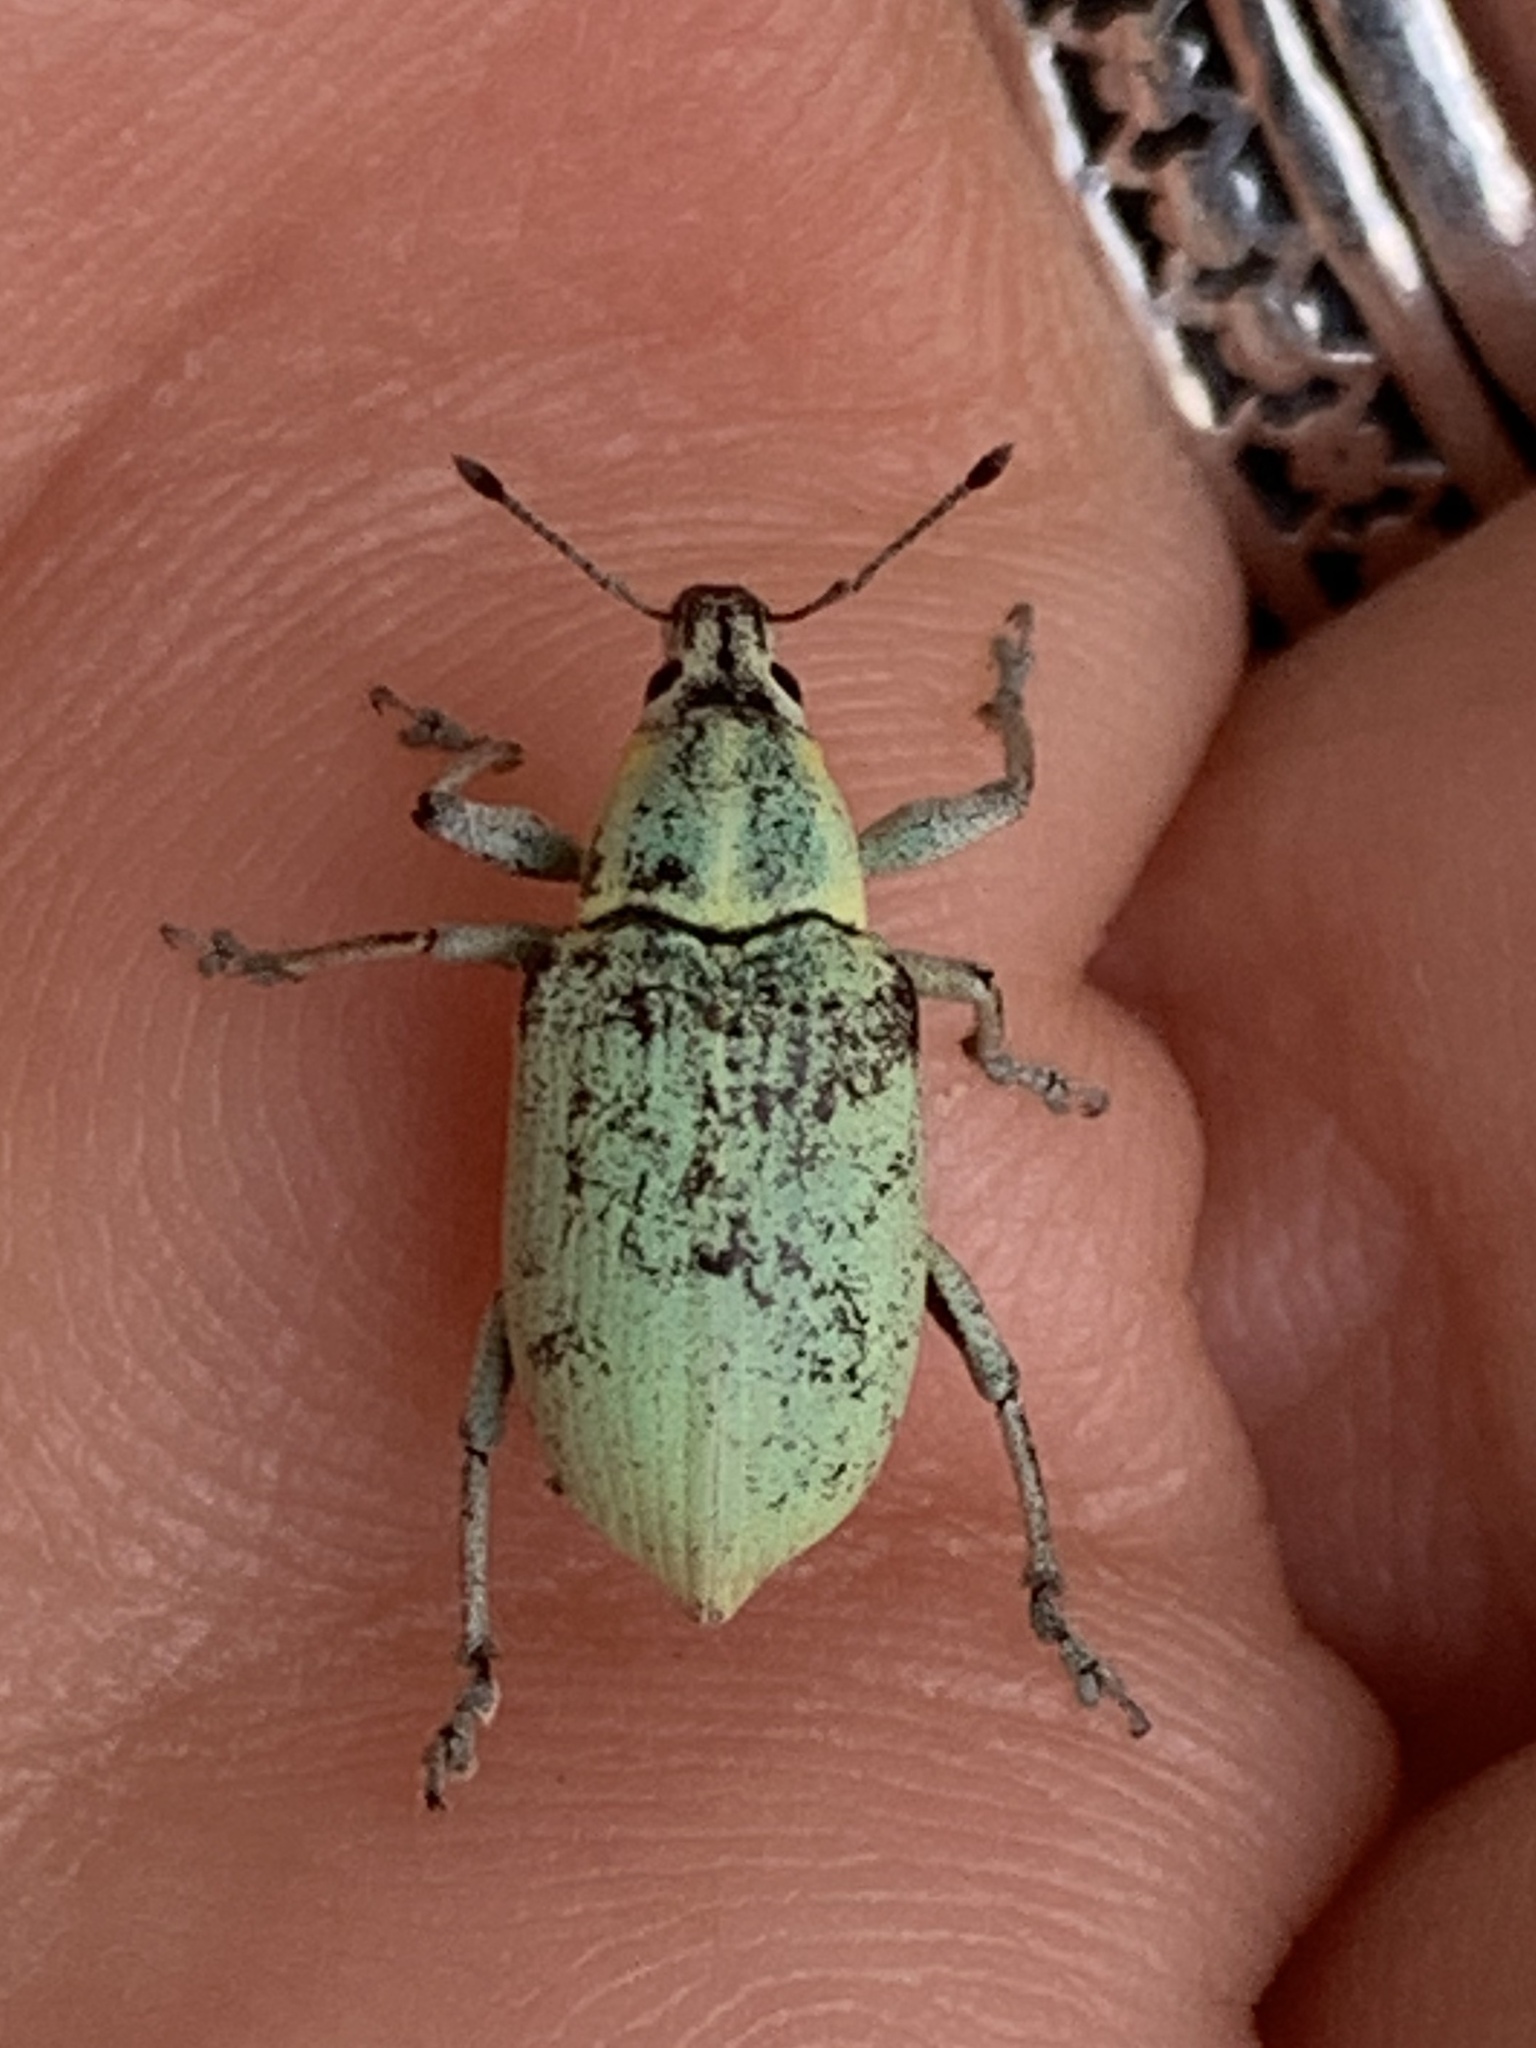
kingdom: Animalia
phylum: Arthropoda
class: Insecta
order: Coleoptera
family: Curculionidae
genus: Pachnaeus
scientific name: Pachnaeus litus
